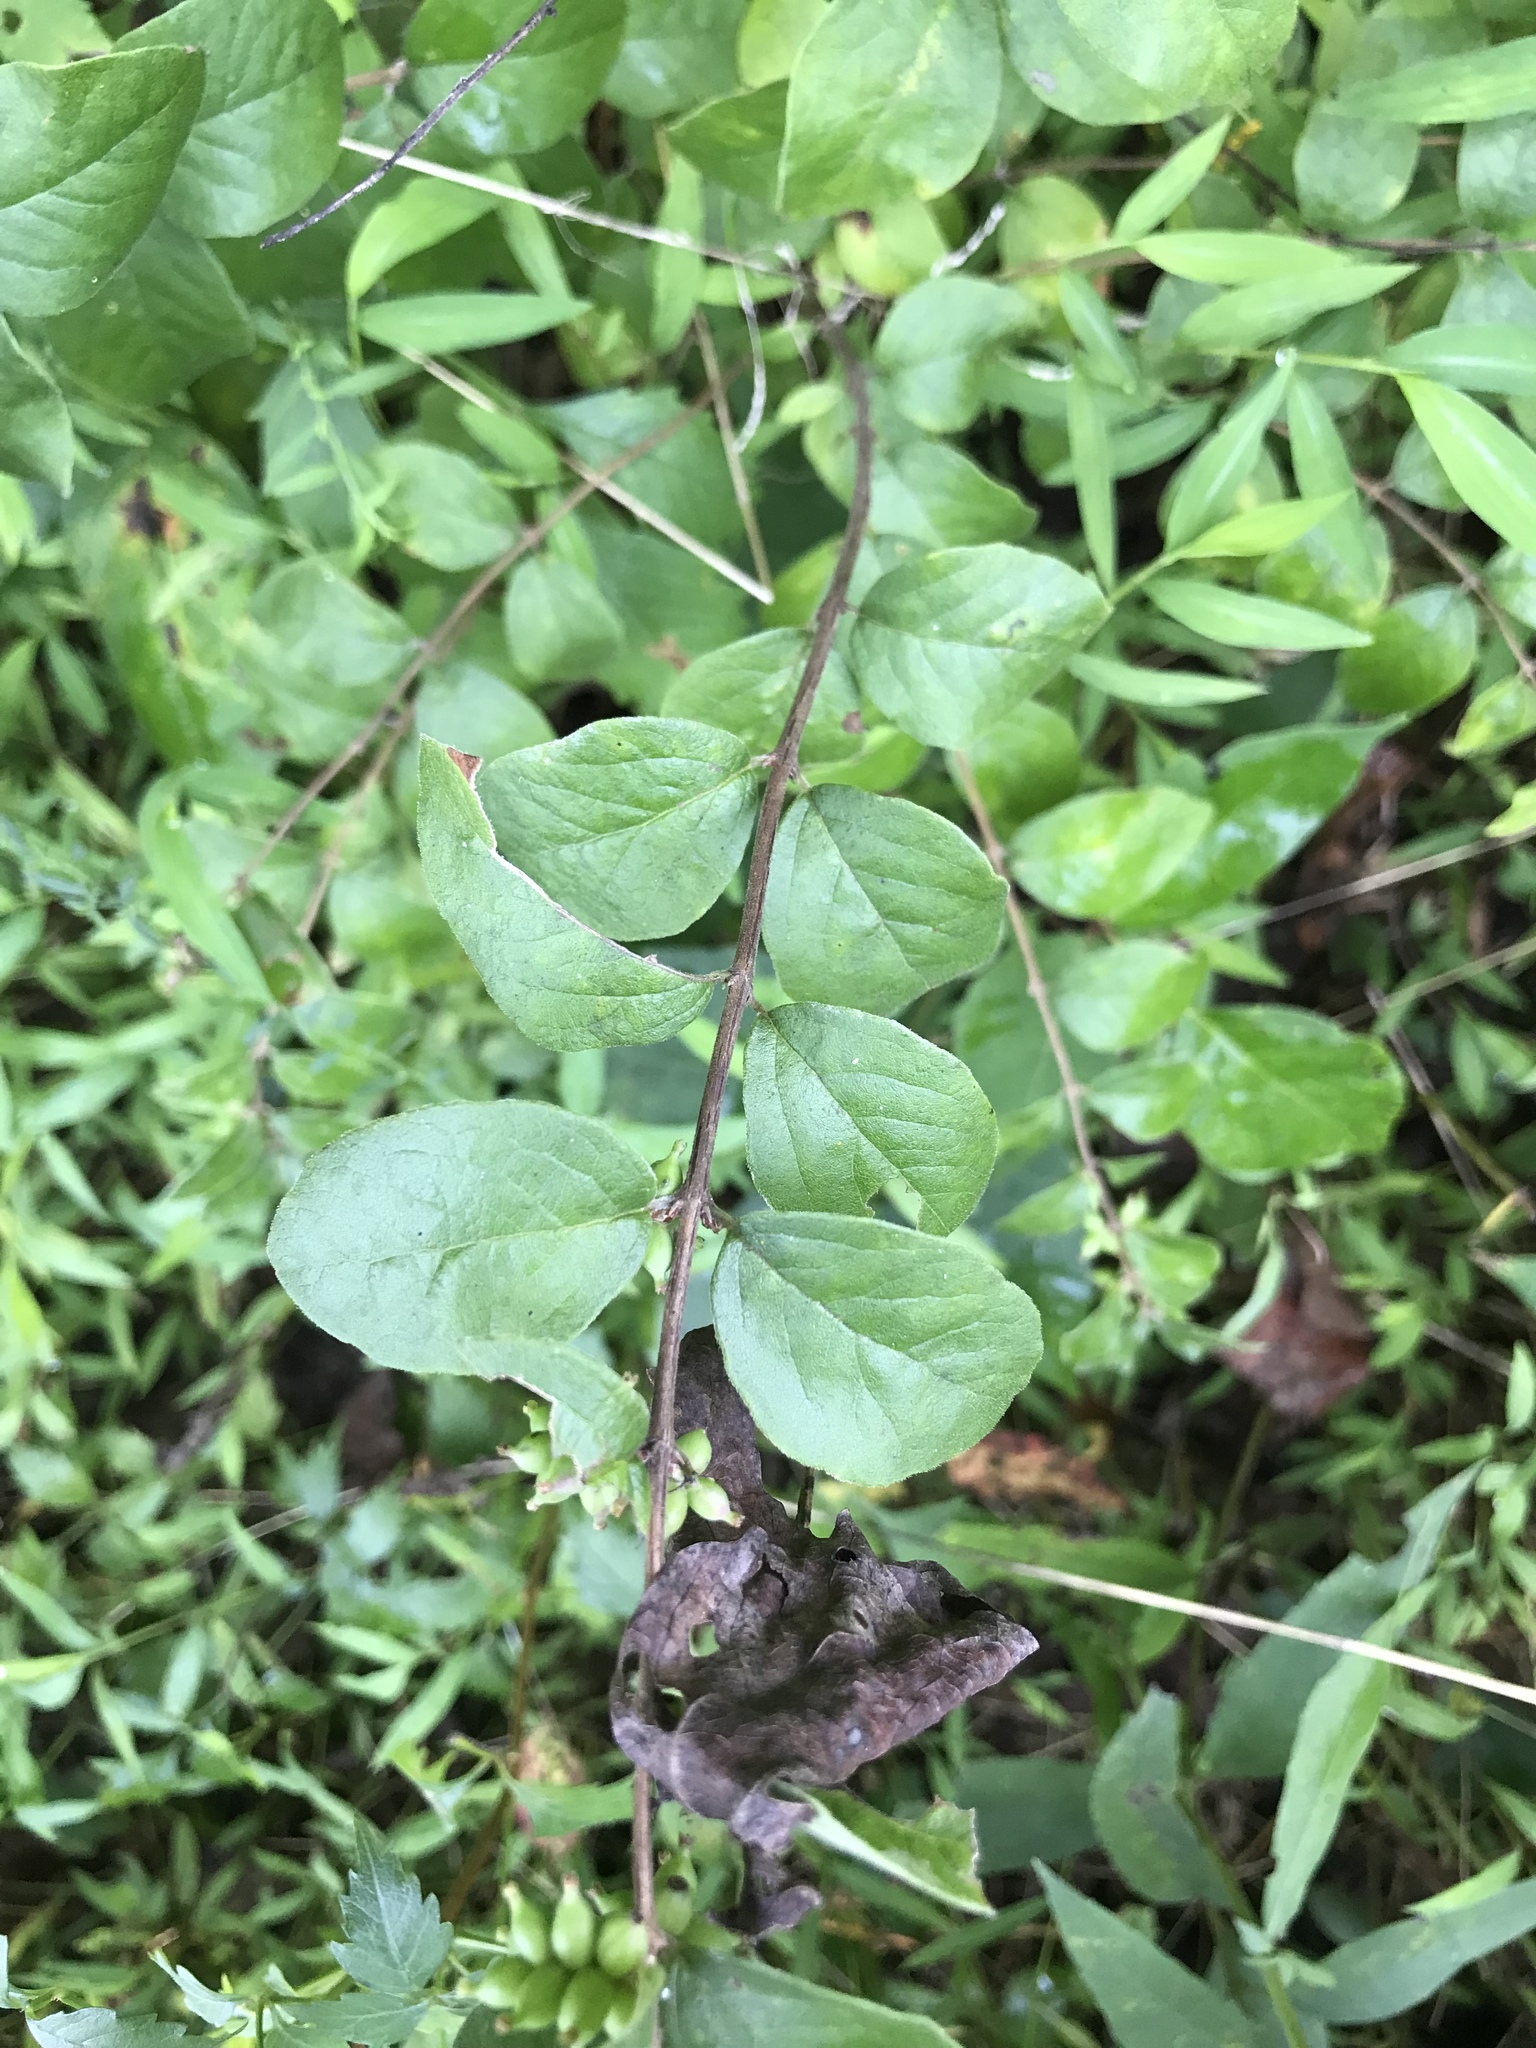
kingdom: Plantae
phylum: Tracheophyta
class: Magnoliopsida
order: Dipsacales
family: Caprifoliaceae
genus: Symphoricarpos
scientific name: Symphoricarpos orbiculatus
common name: Coralberry
